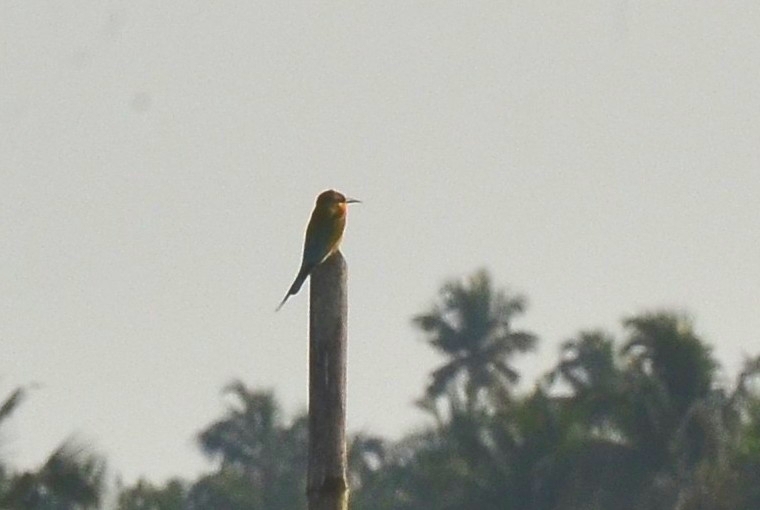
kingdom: Animalia
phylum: Chordata
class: Aves
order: Coraciiformes
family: Meropidae
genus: Merops
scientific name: Merops philippinus
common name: Blue-tailed bee-eater
